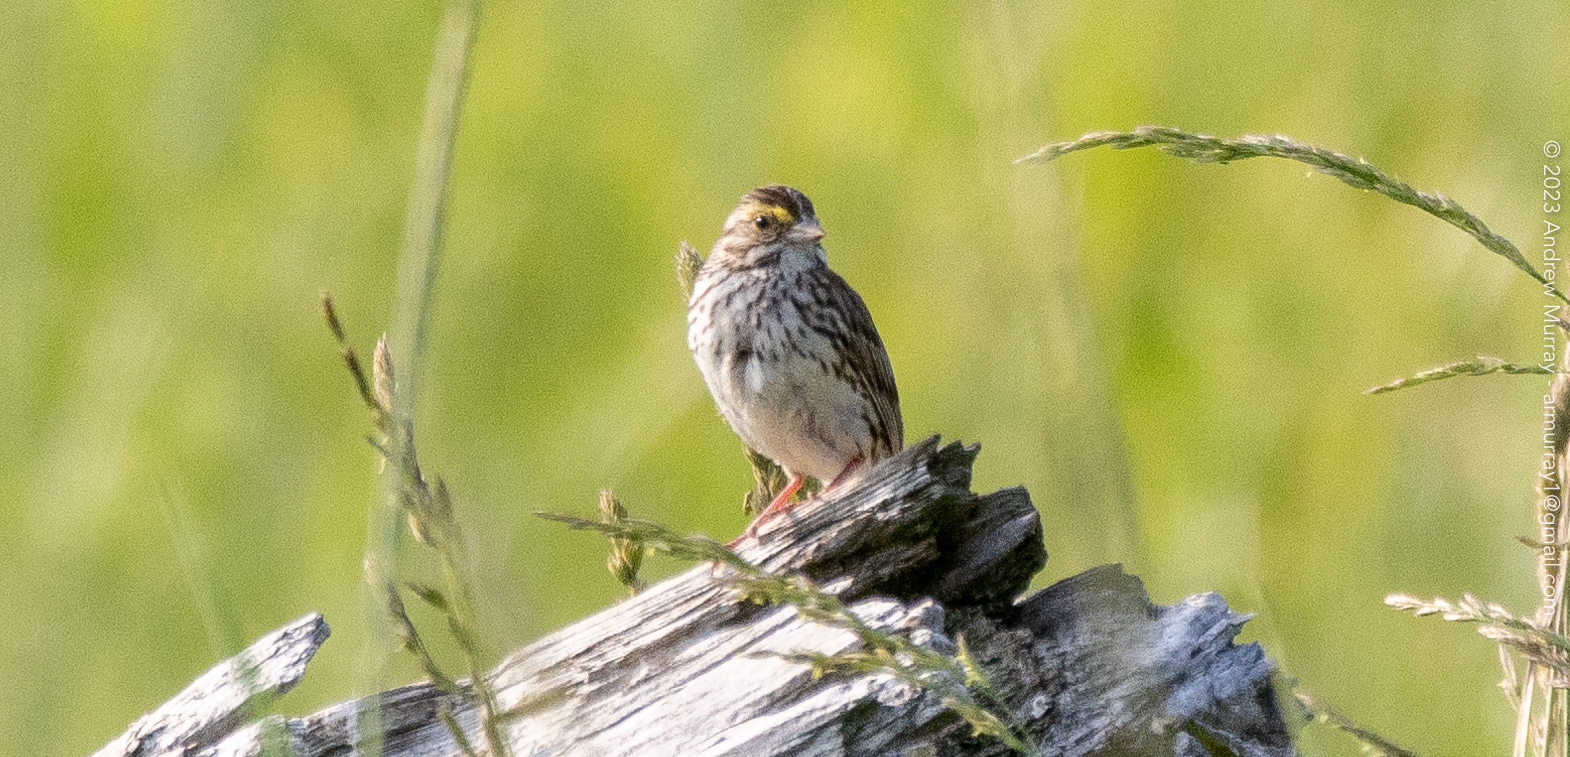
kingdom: Animalia
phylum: Chordata
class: Aves
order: Passeriformes
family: Passerellidae
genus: Passerculus
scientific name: Passerculus sandwichensis
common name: Savannah sparrow
